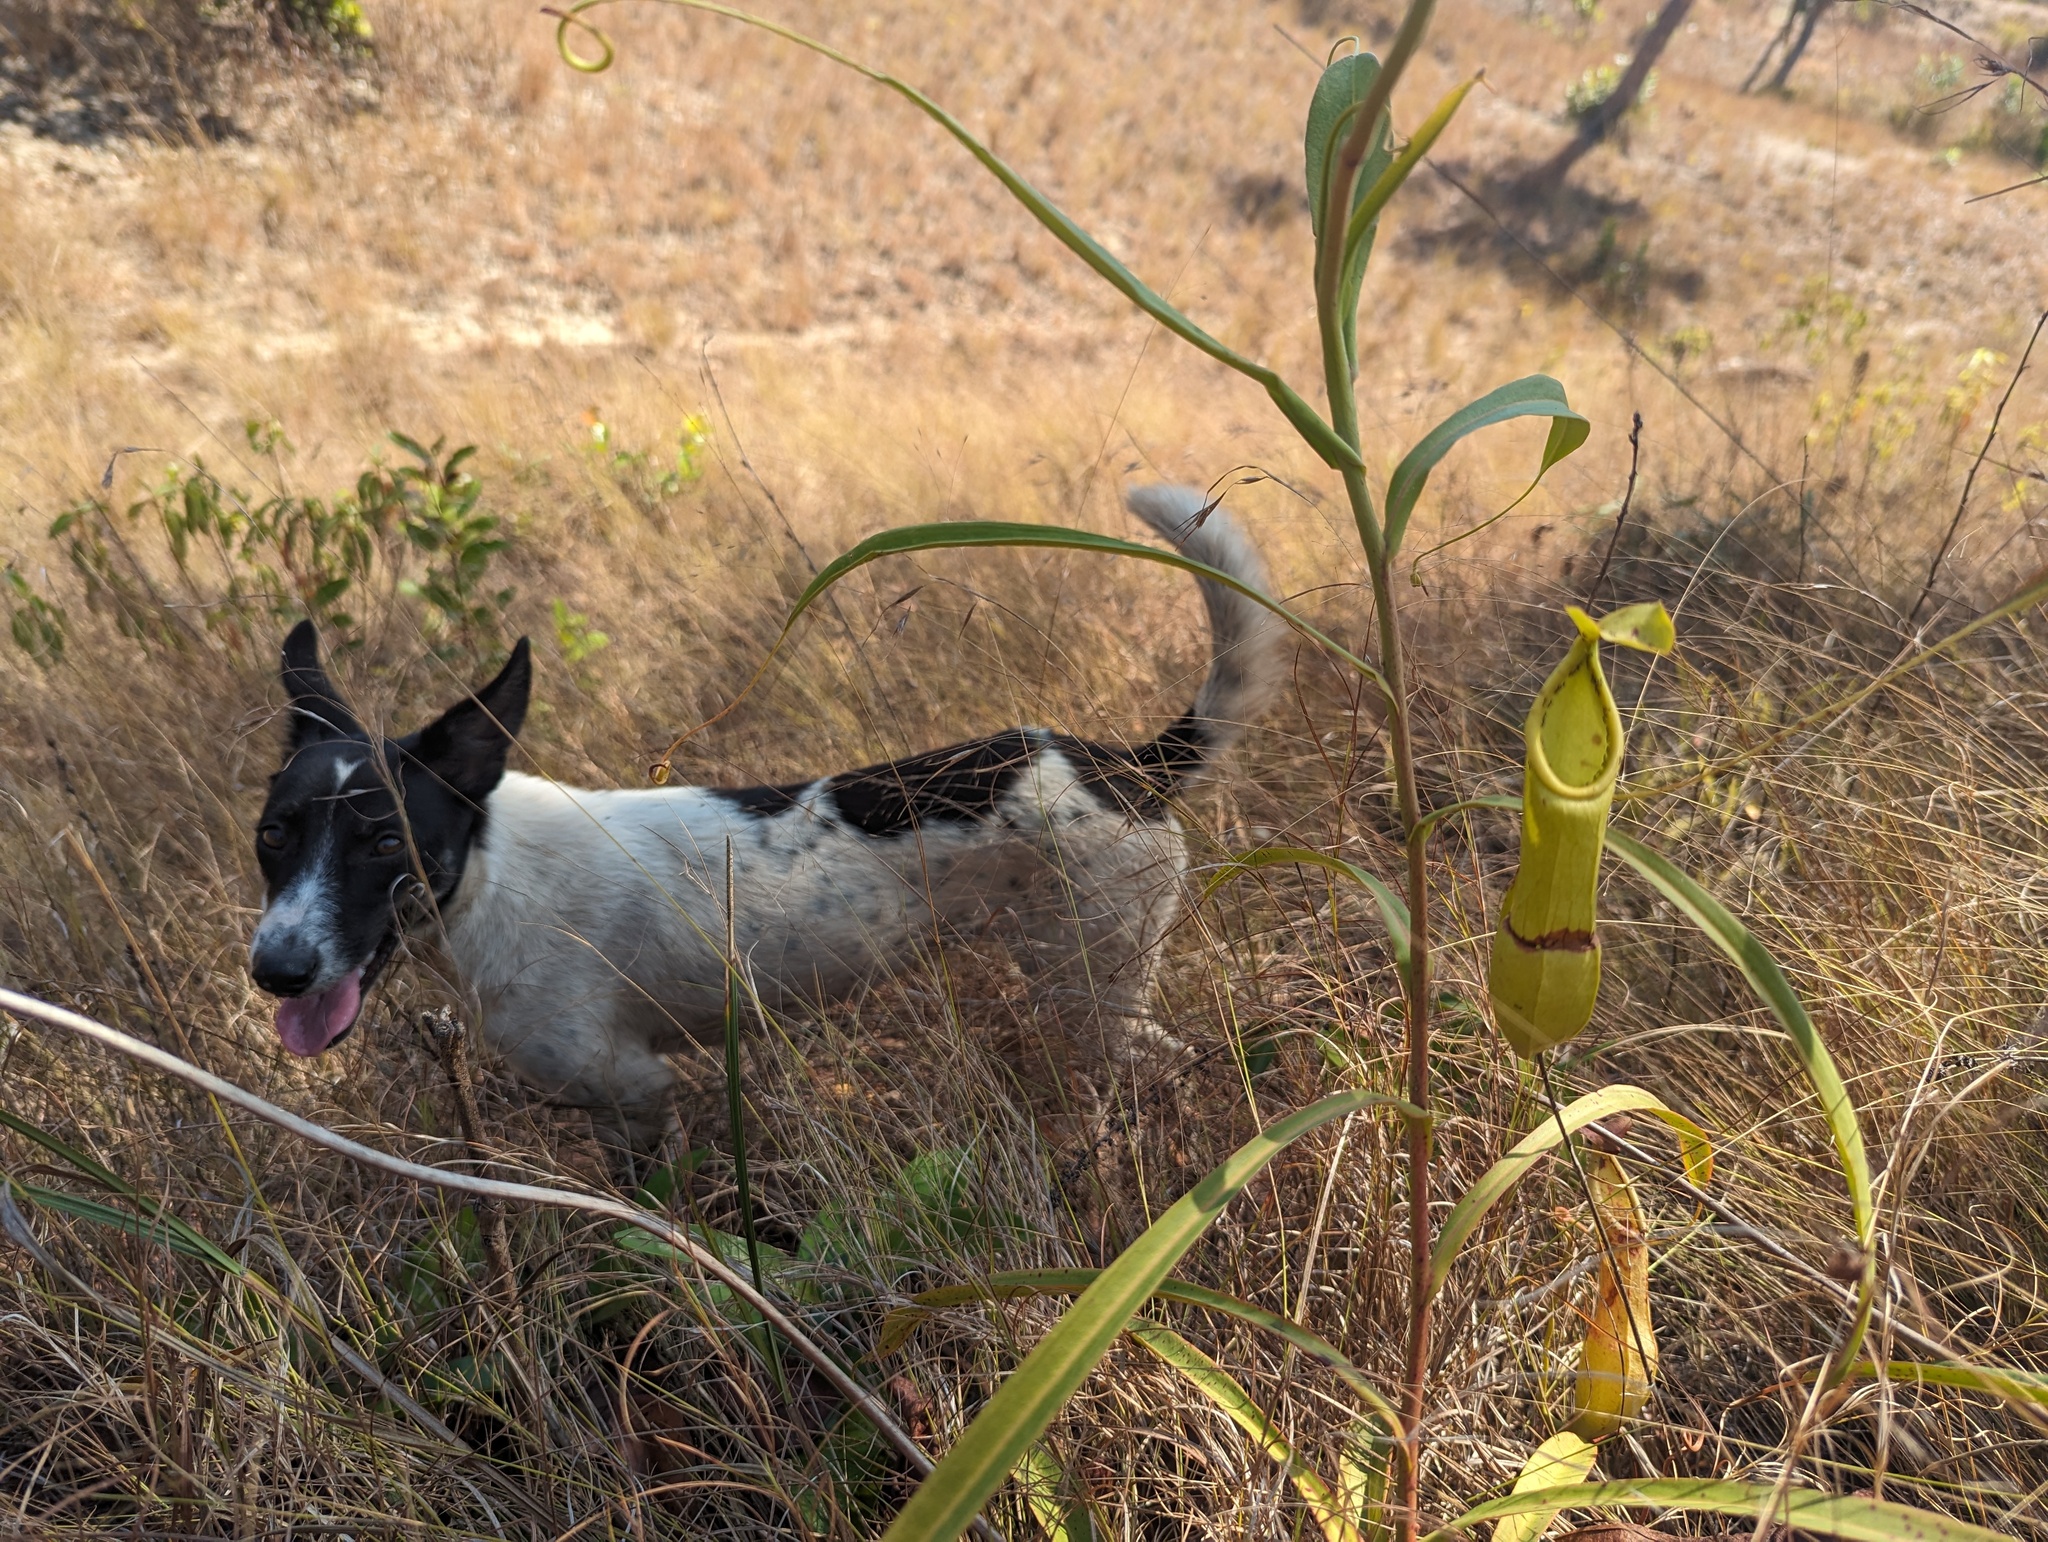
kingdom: Plantae
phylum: Tracheophyta
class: Magnoliopsida
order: Caryophyllales
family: Nepenthaceae
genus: Nepenthes
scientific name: Nepenthes abalata
